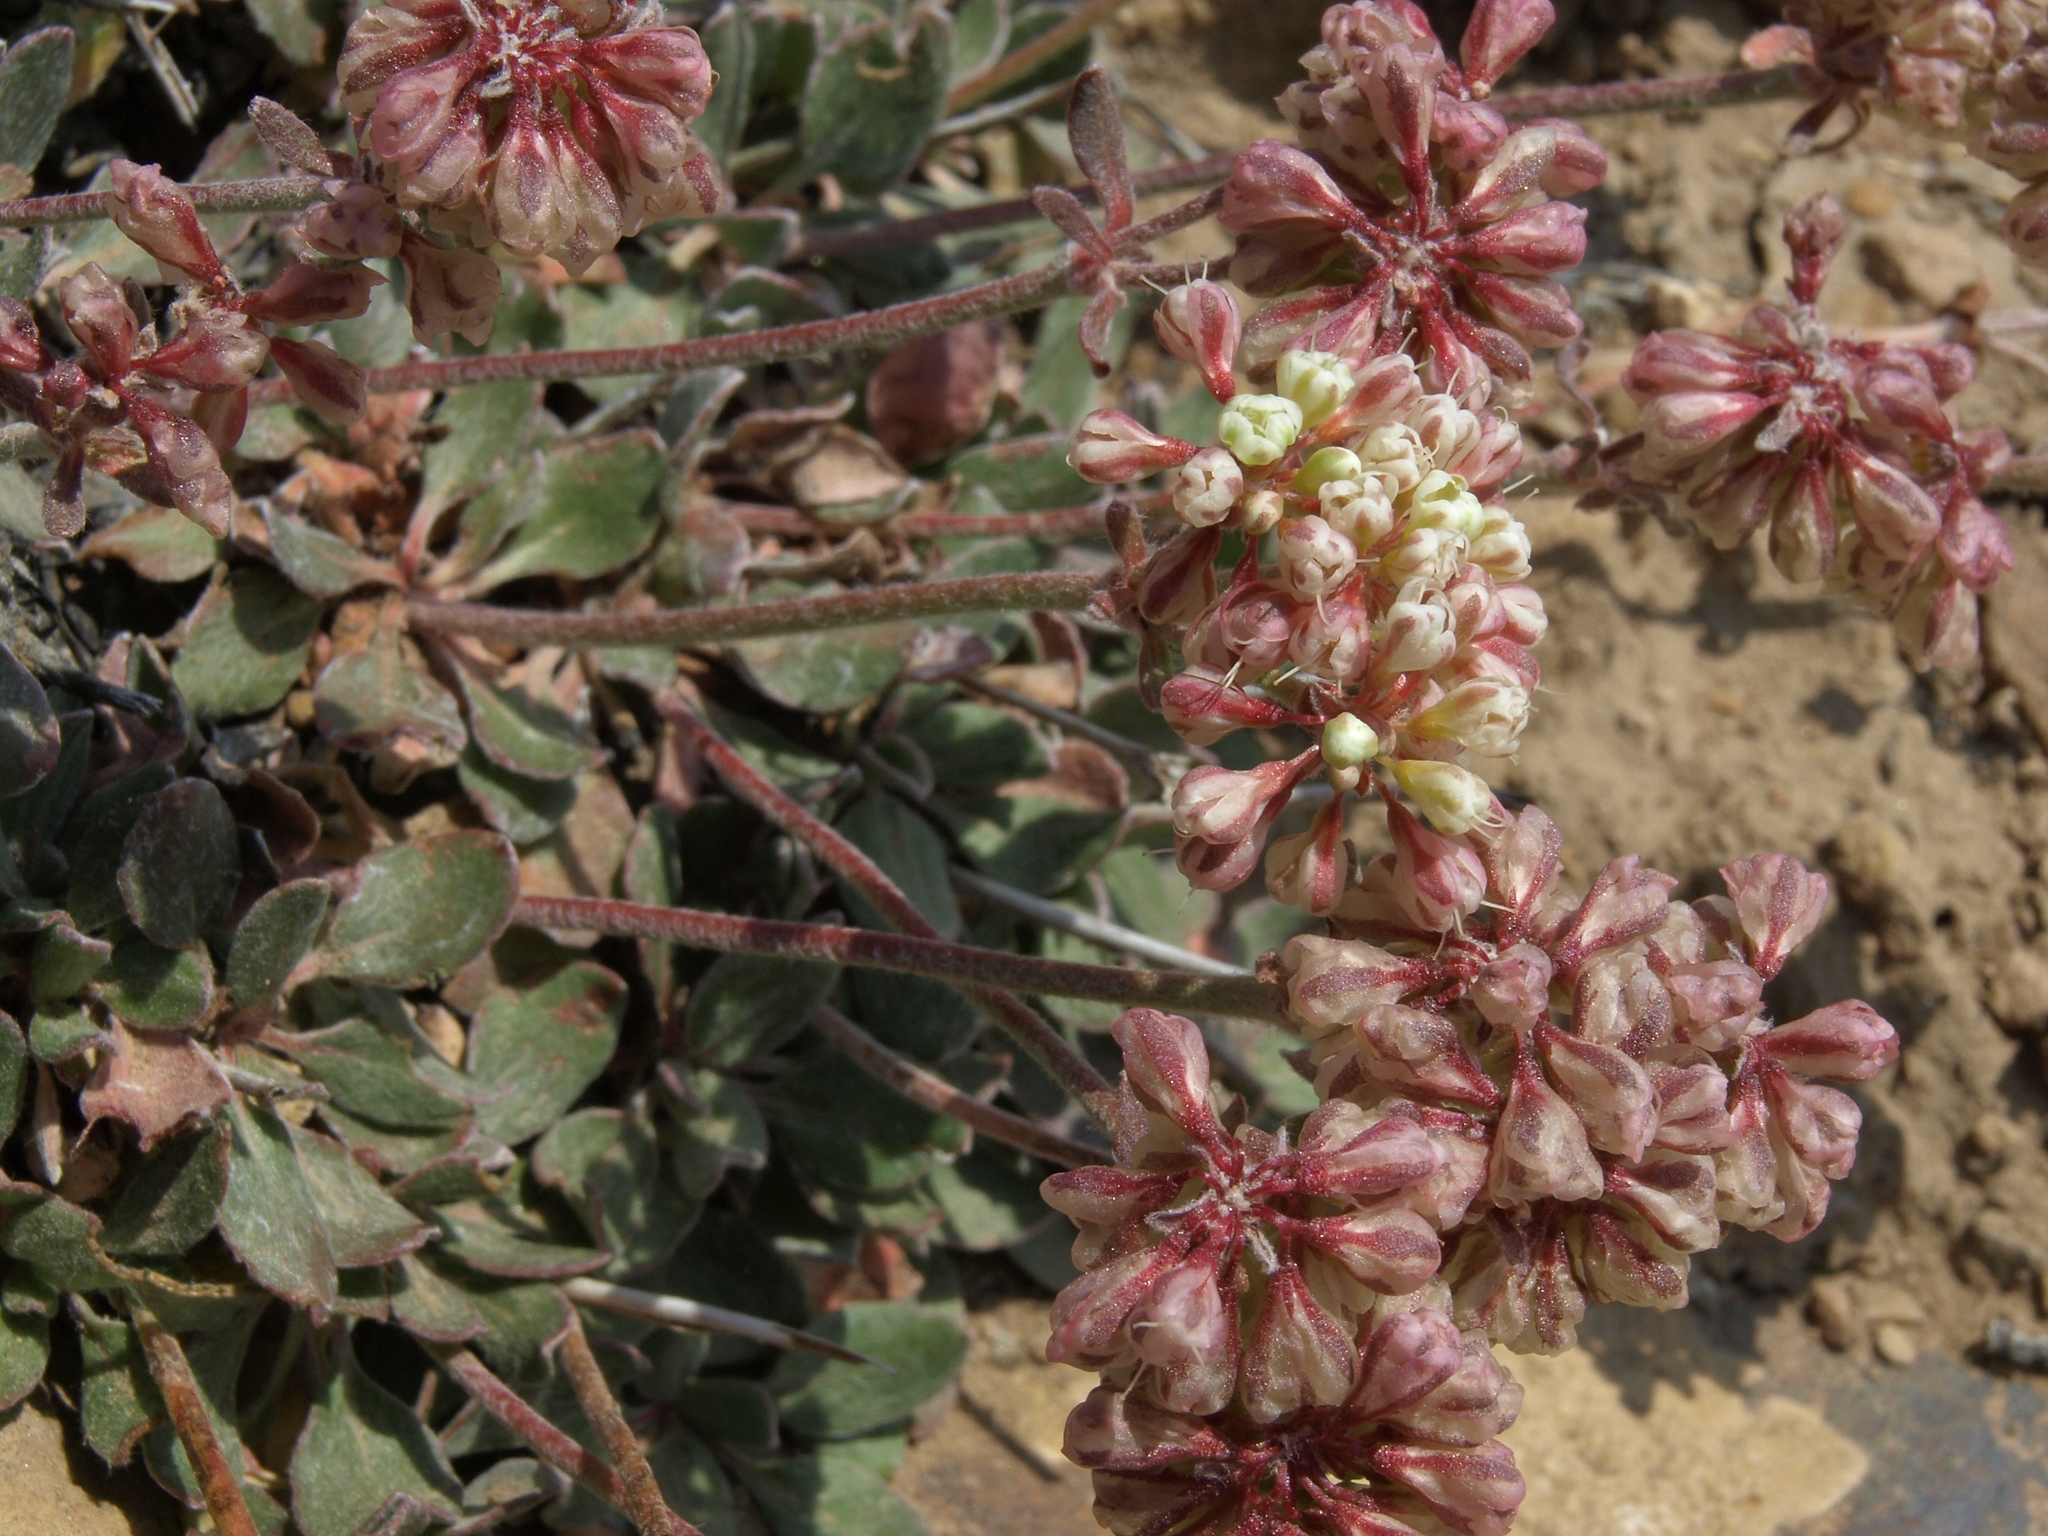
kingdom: Plantae
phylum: Tracheophyta
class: Magnoliopsida
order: Caryophyllales
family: Polygonaceae
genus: Eriogonum
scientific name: Eriogonum umbellatum
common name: Sulfur-buckwheat
